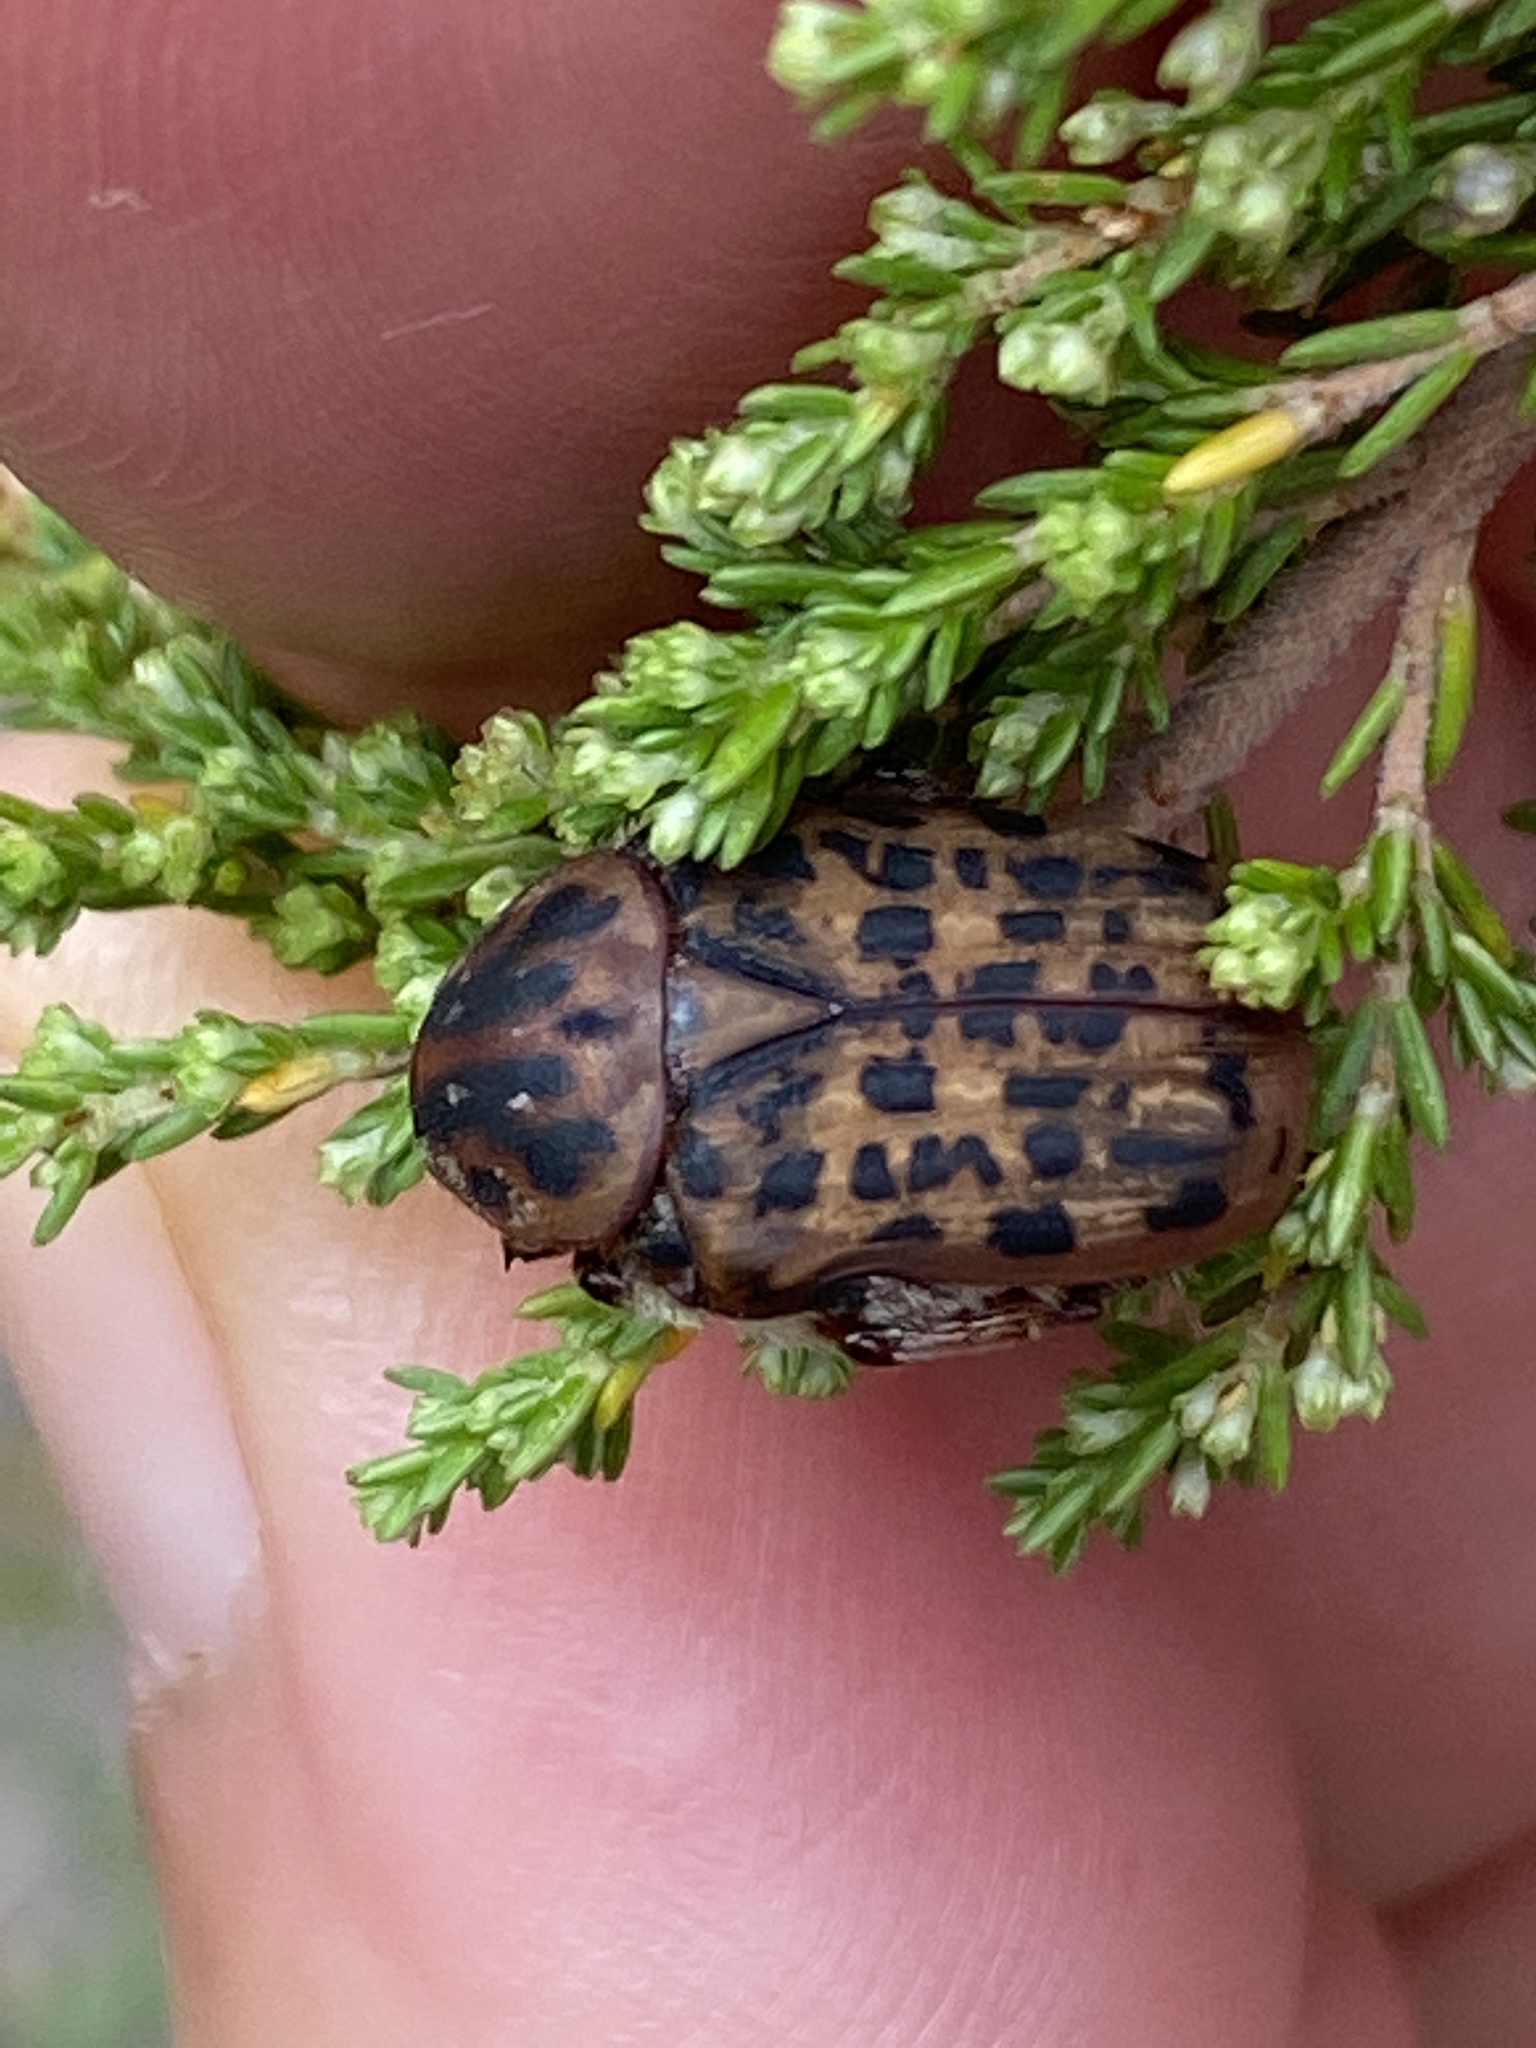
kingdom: Animalia
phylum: Arthropoda
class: Insecta
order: Coleoptera
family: Scarabaeidae
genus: Atrichelaphinis
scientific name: Atrichelaphinis tigrina
